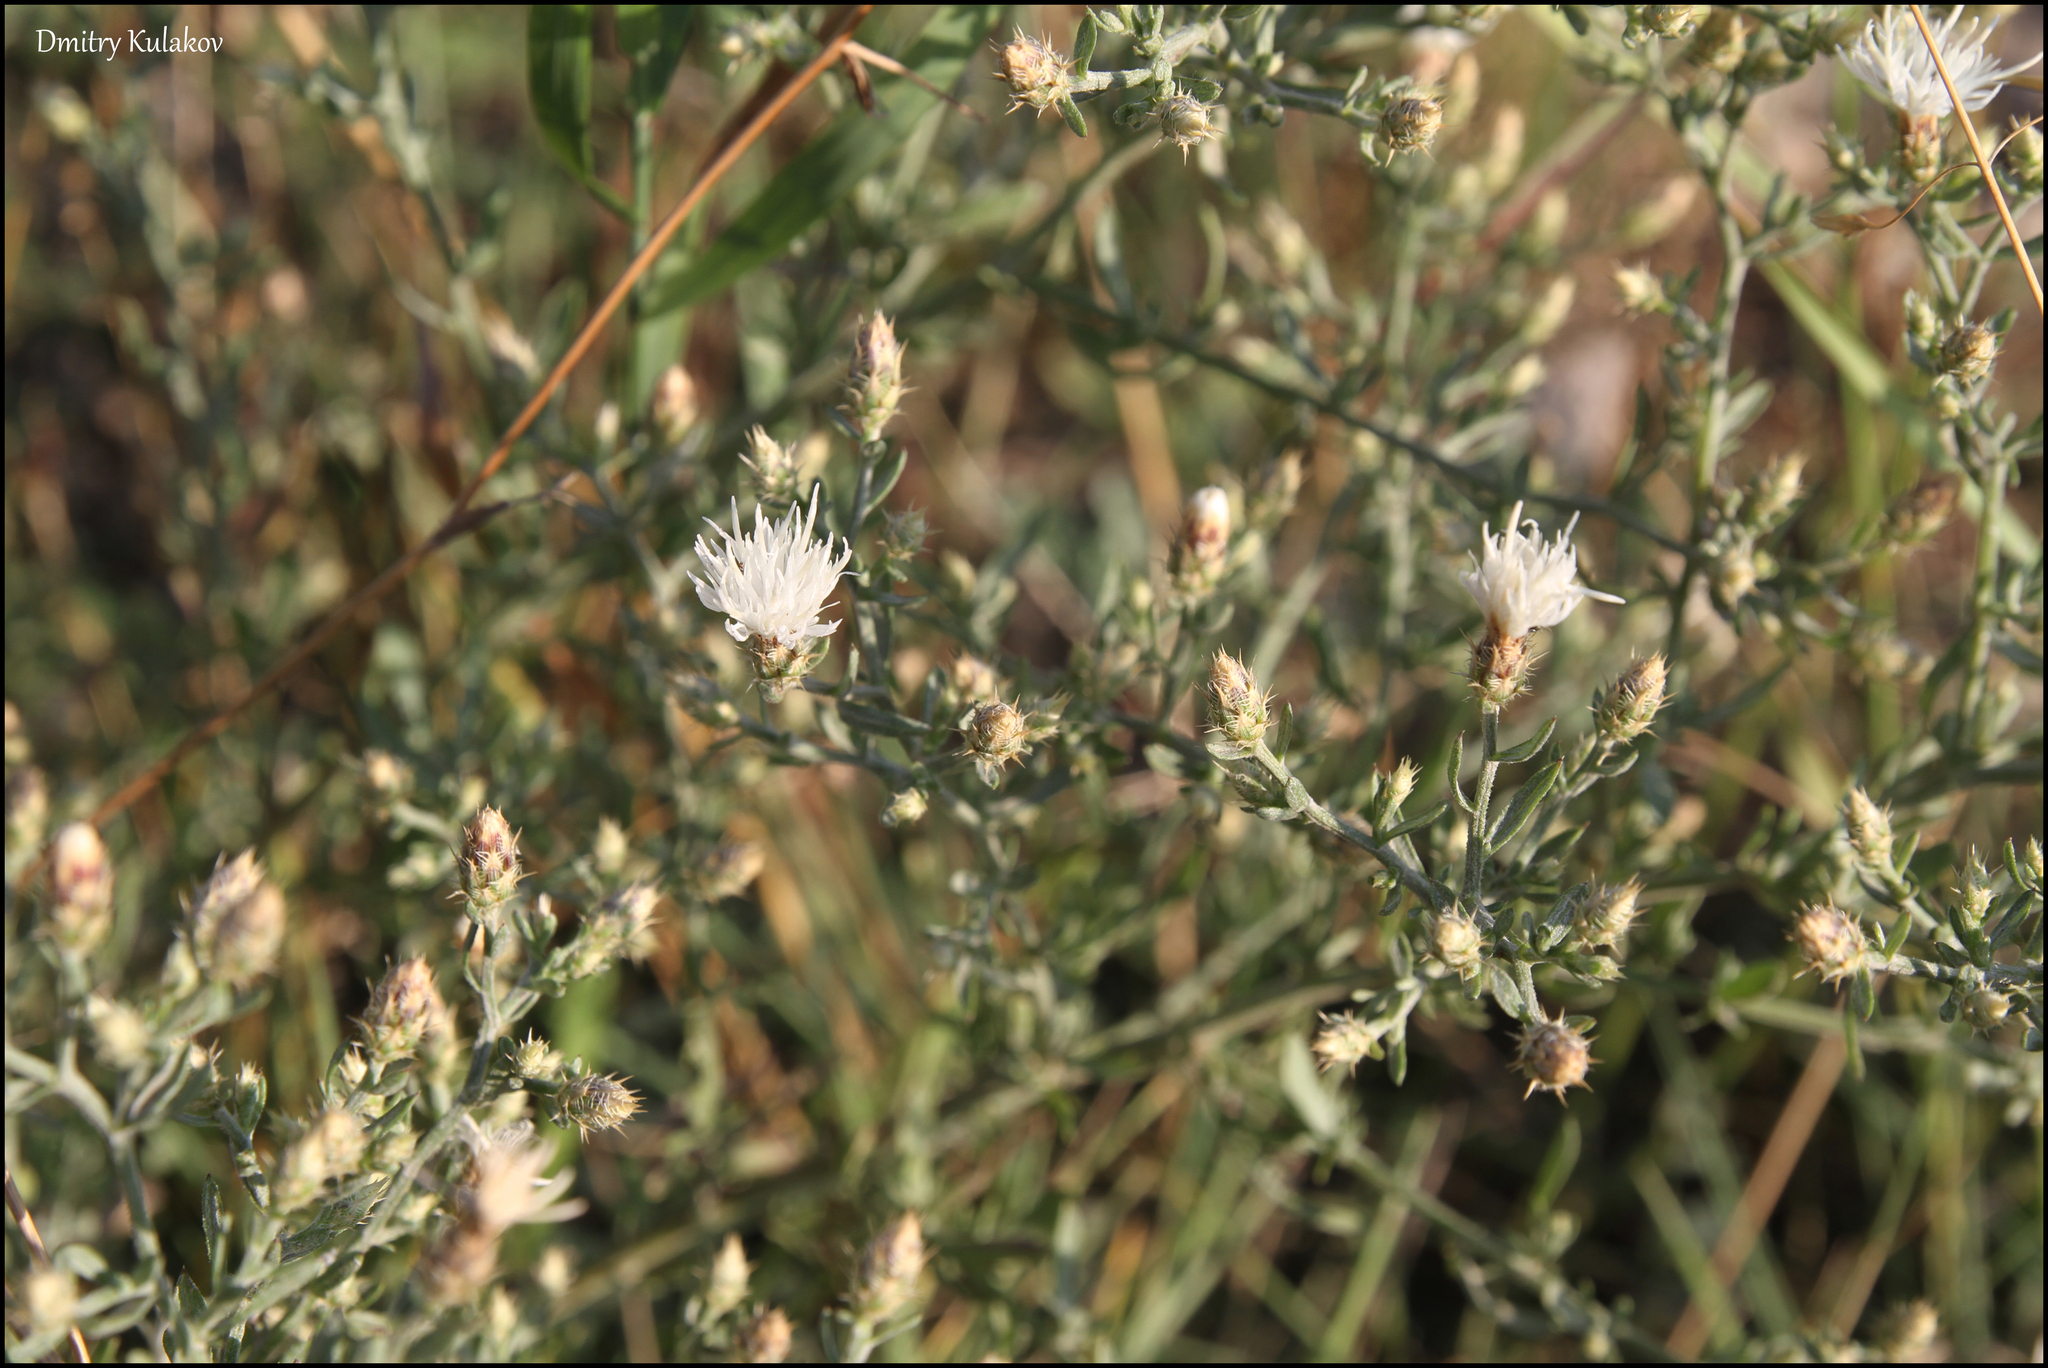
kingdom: Plantae
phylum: Tracheophyta
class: Magnoliopsida
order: Asterales
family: Asteraceae
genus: Centaurea
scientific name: Centaurea diffusa
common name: Diffuse knapweed
